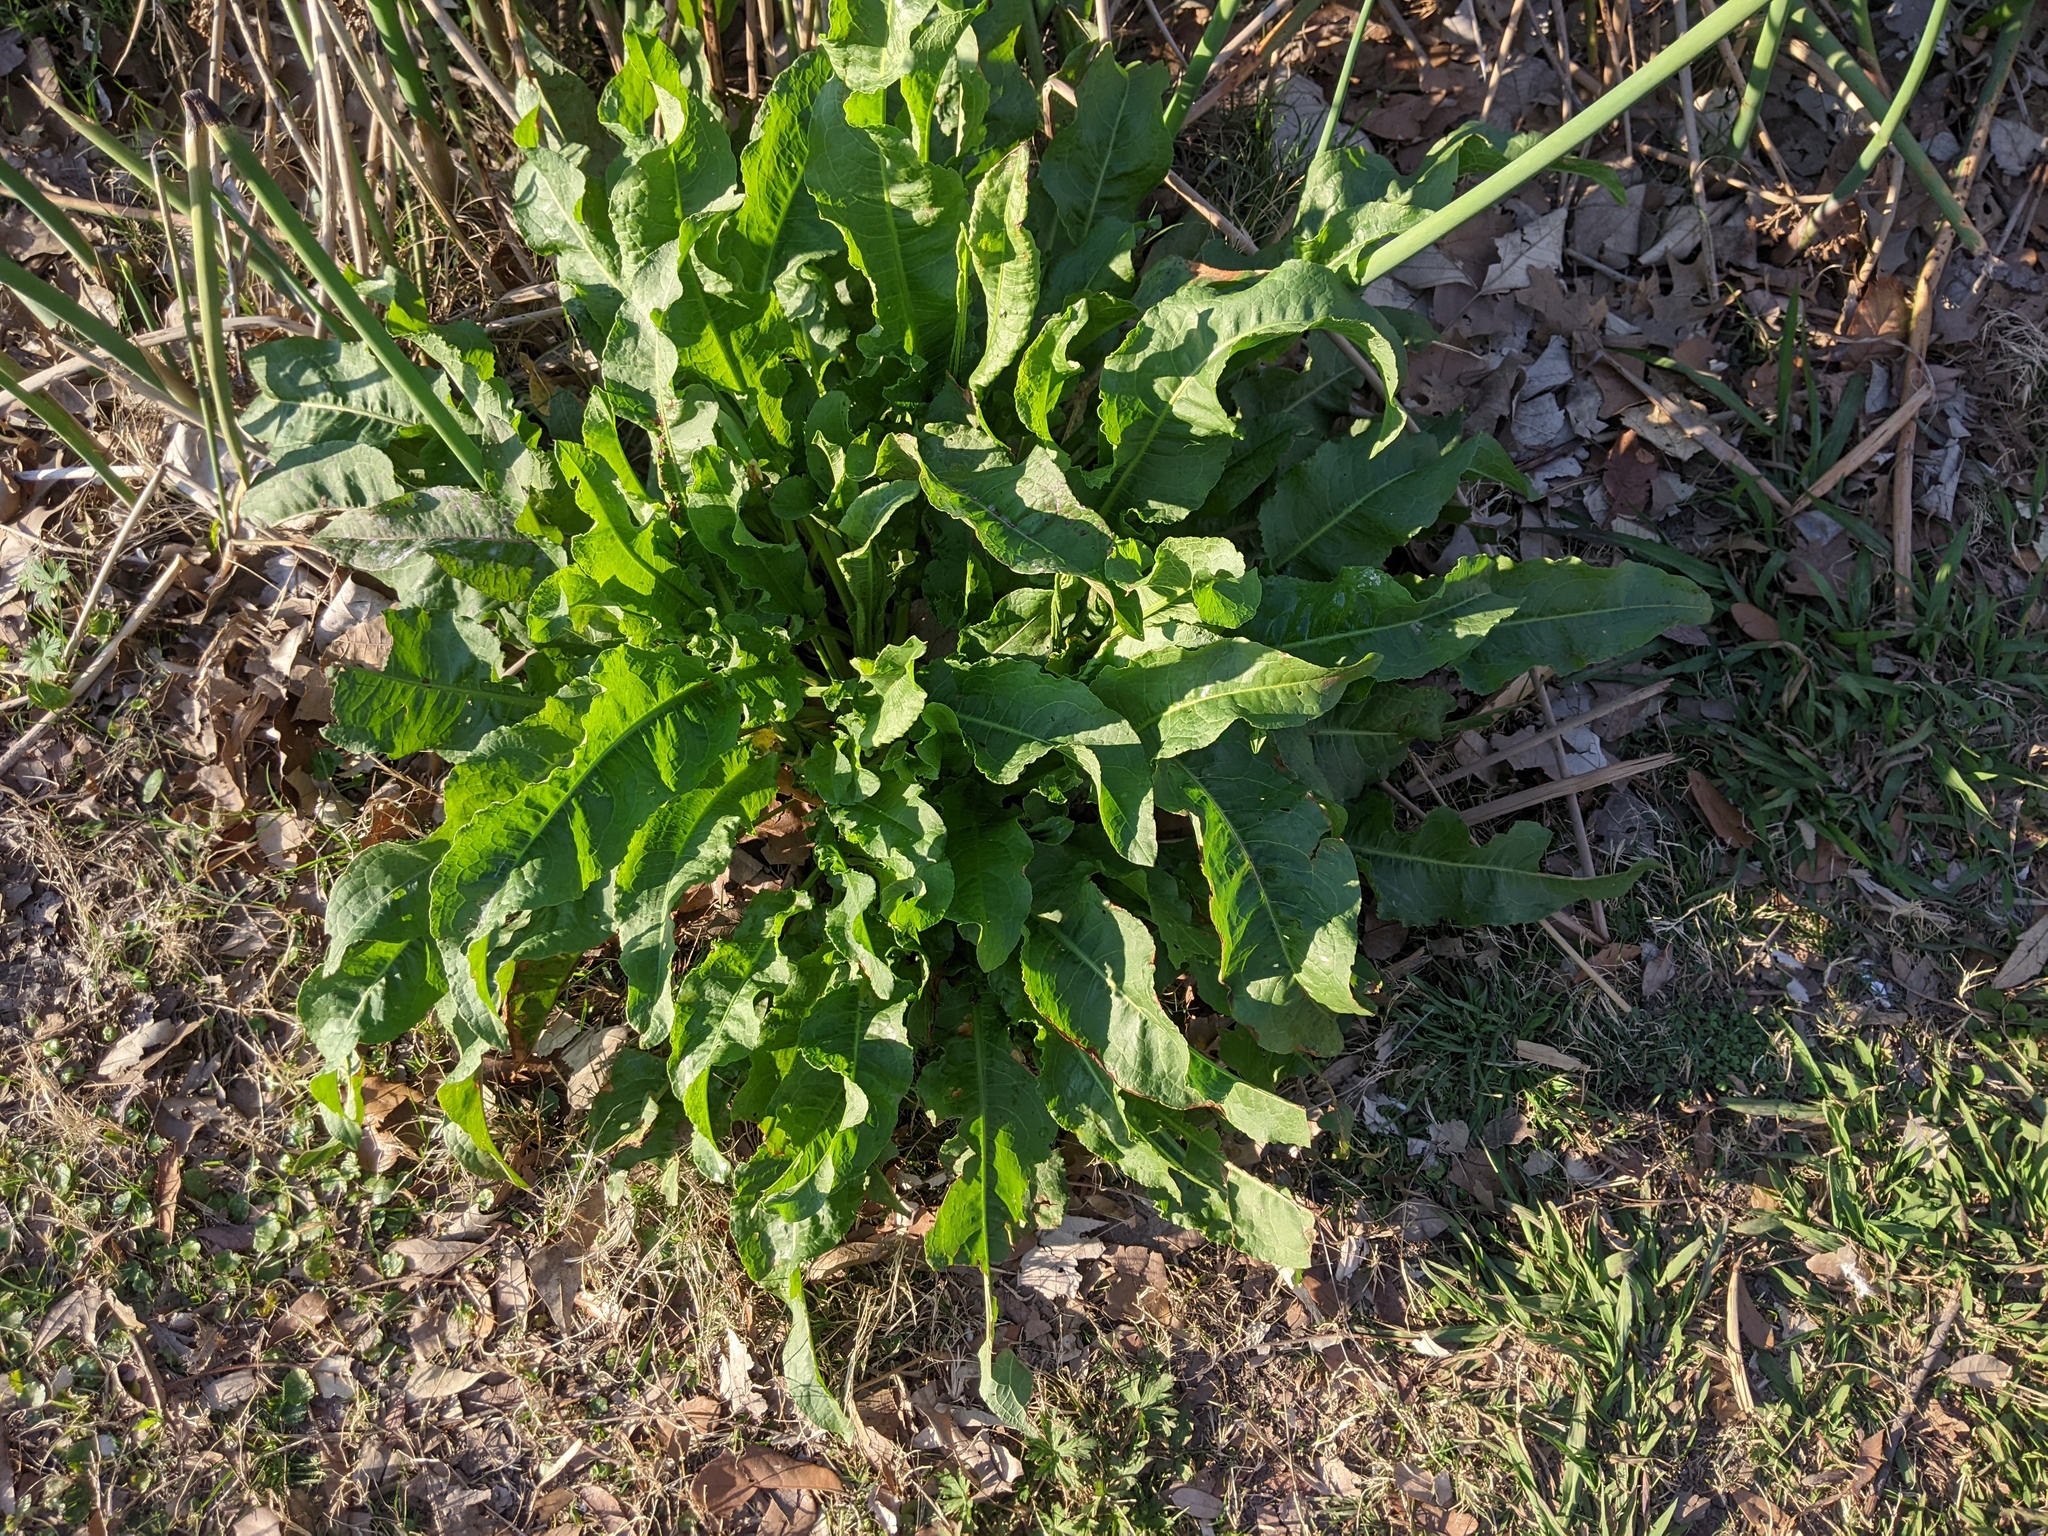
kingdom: Plantae
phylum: Tracheophyta
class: Magnoliopsida
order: Caryophyllales
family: Polygonaceae
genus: Rumex
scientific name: Rumex crispus
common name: Curled dock
